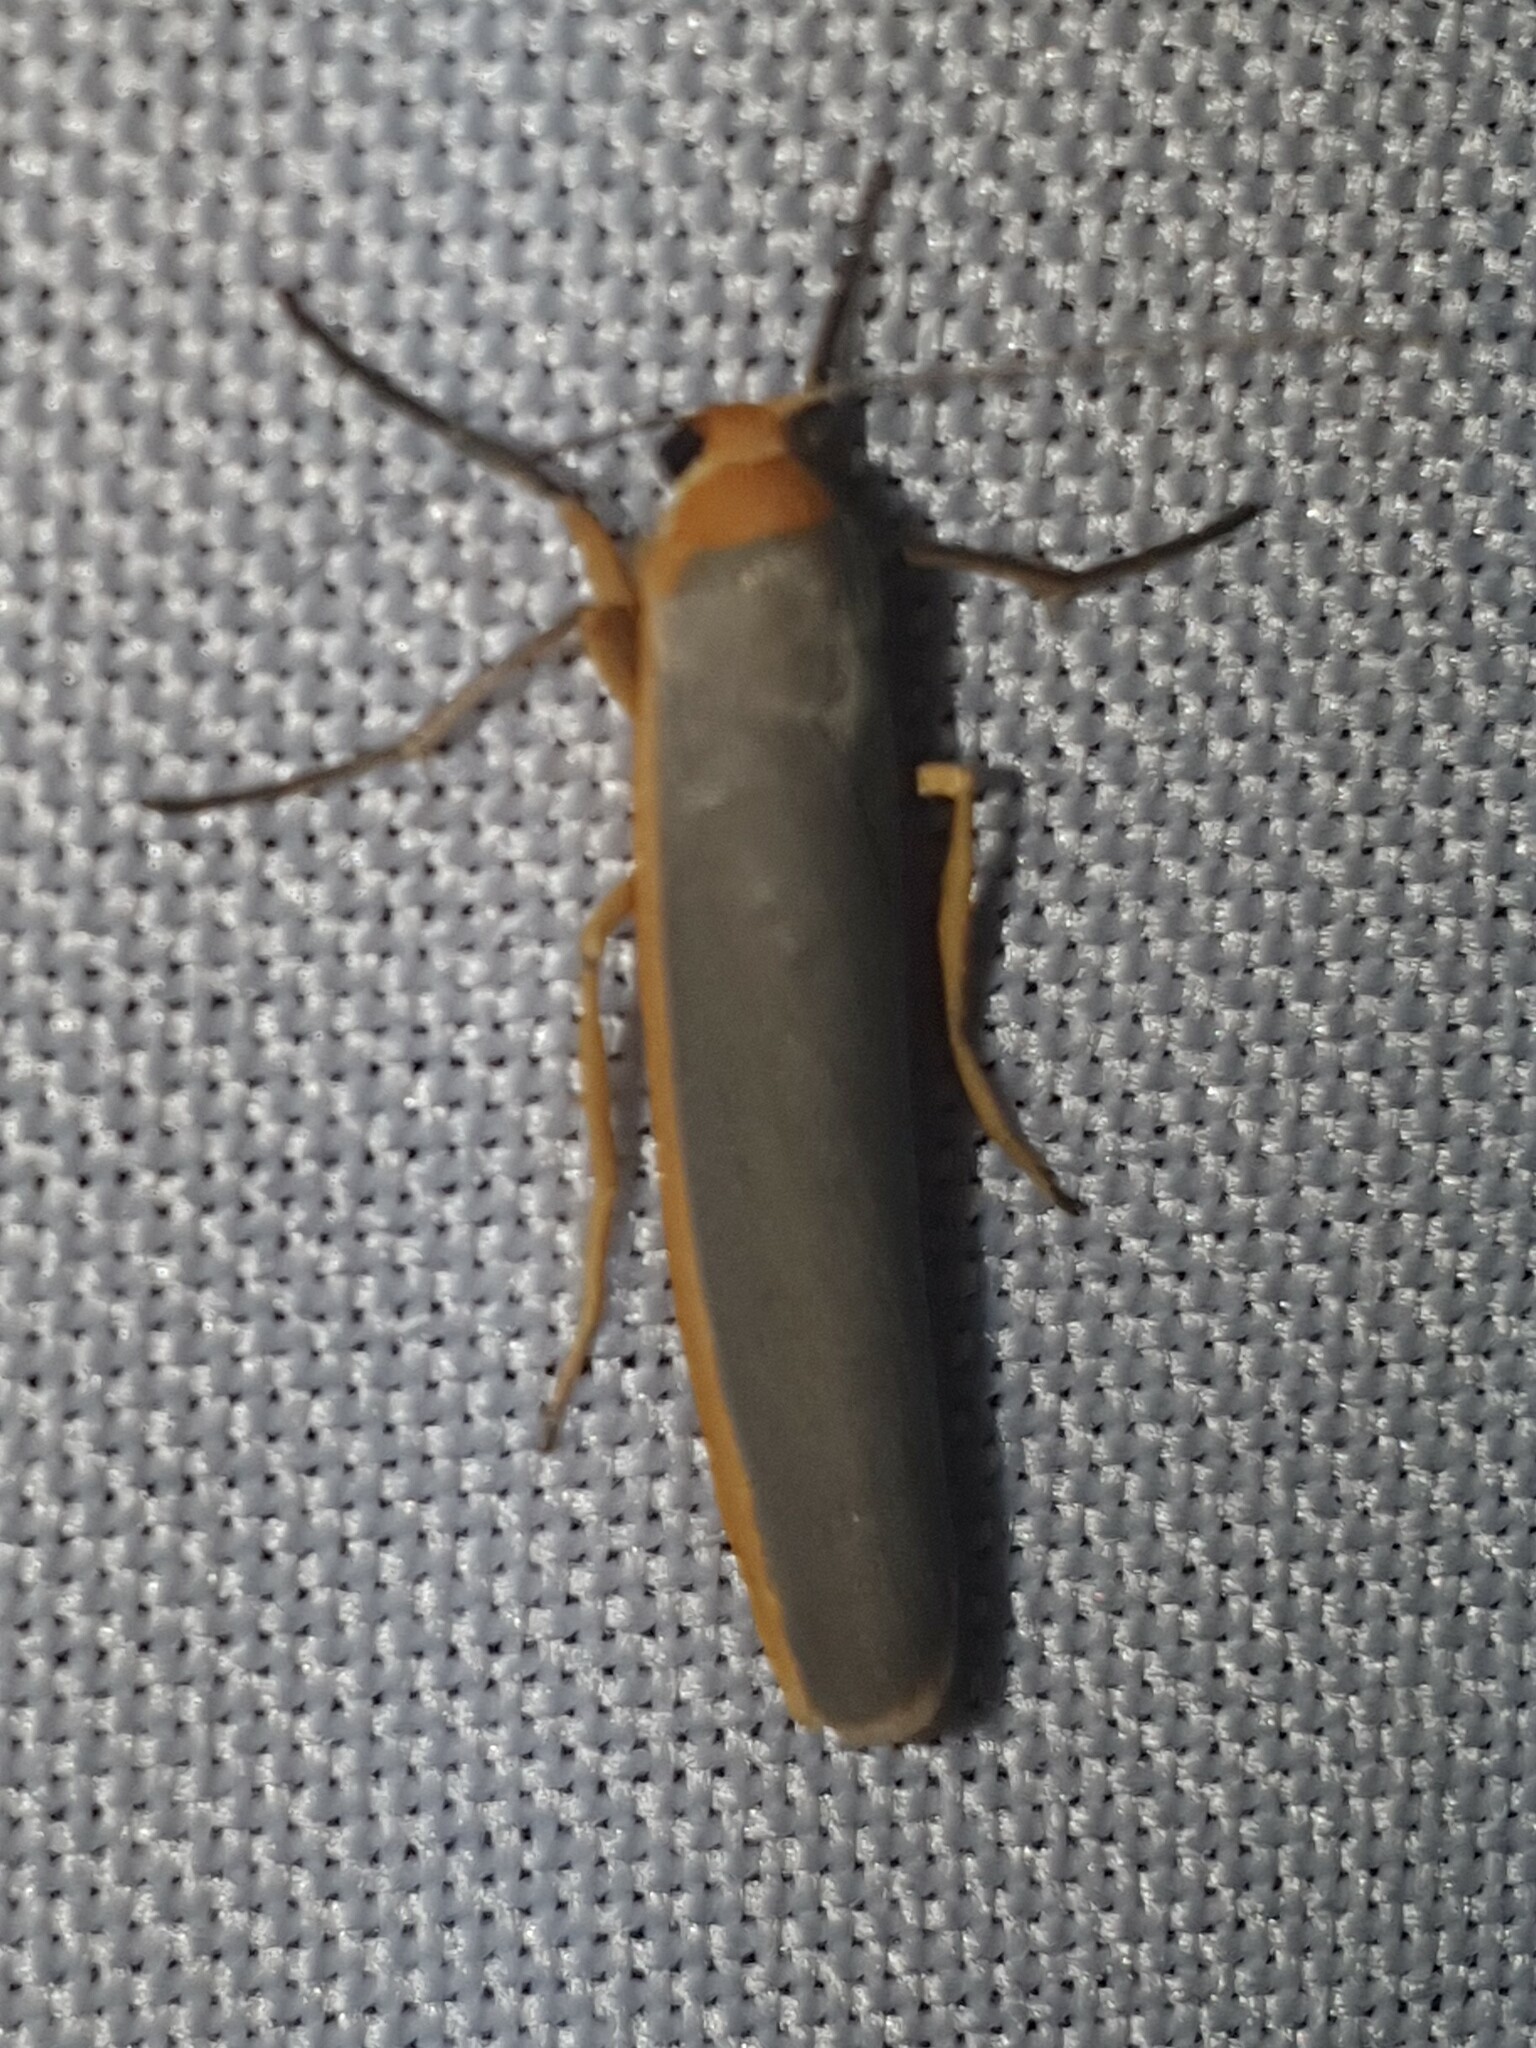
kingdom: Animalia
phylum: Arthropoda
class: Insecta
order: Lepidoptera
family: Erebidae
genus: Manulea
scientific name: Manulea complana
